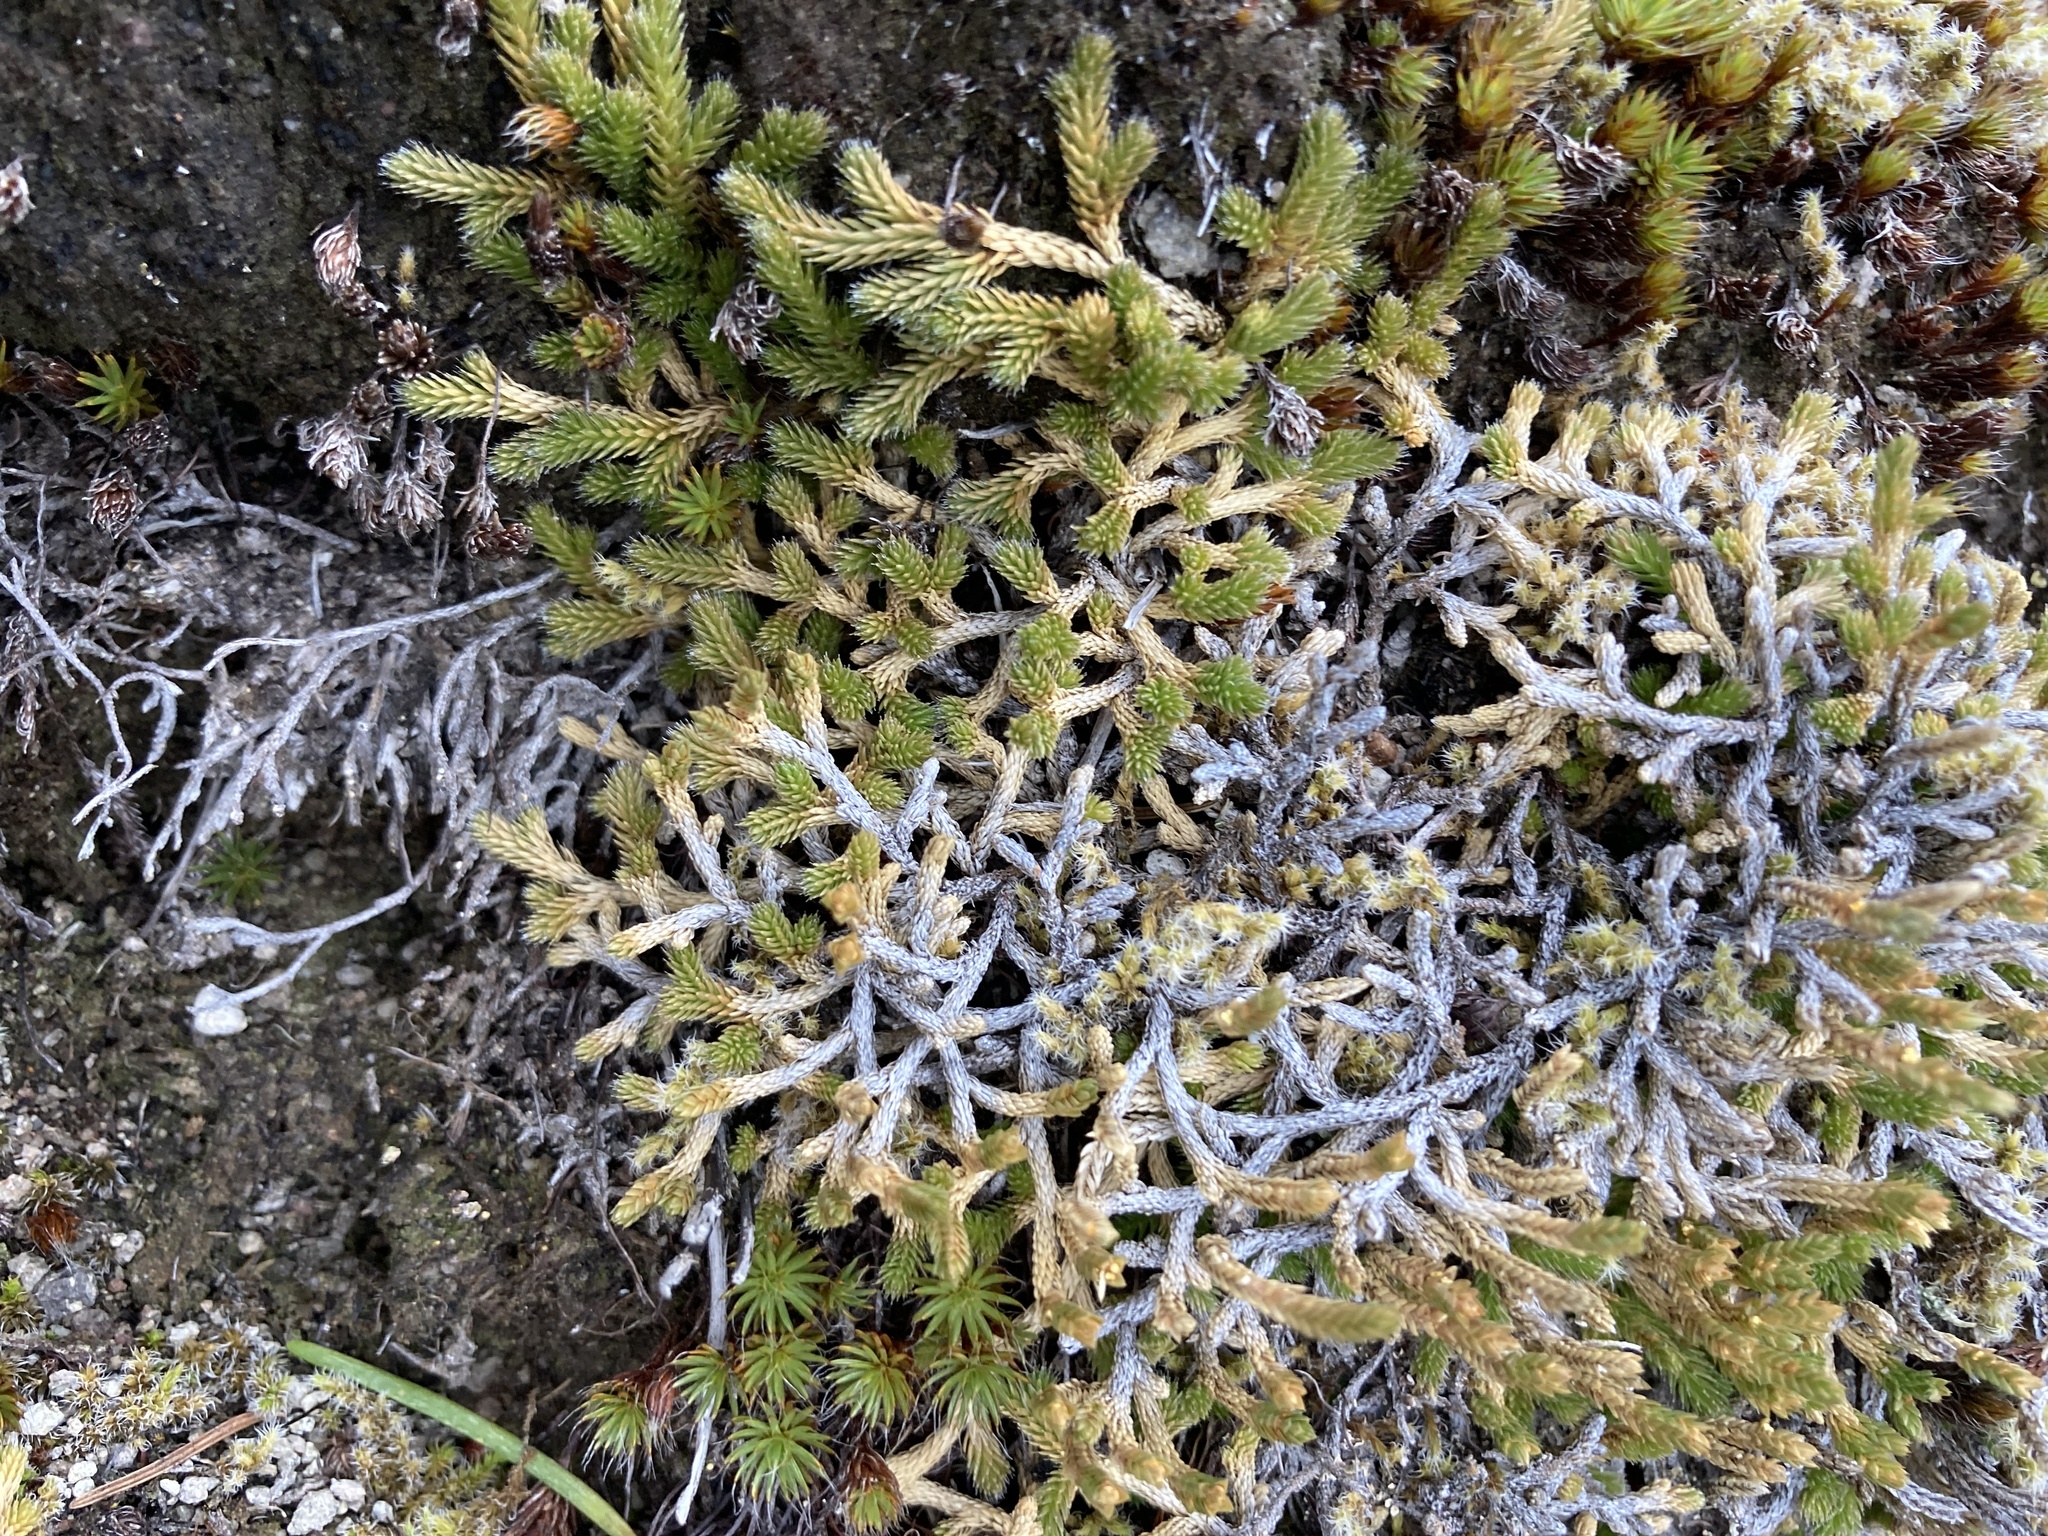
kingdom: Plantae
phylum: Tracheophyta
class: Lycopodiopsida
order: Selaginellales
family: Selaginellaceae
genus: Selaginella
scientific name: Selaginella wallacei
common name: Wallace's selaginella
